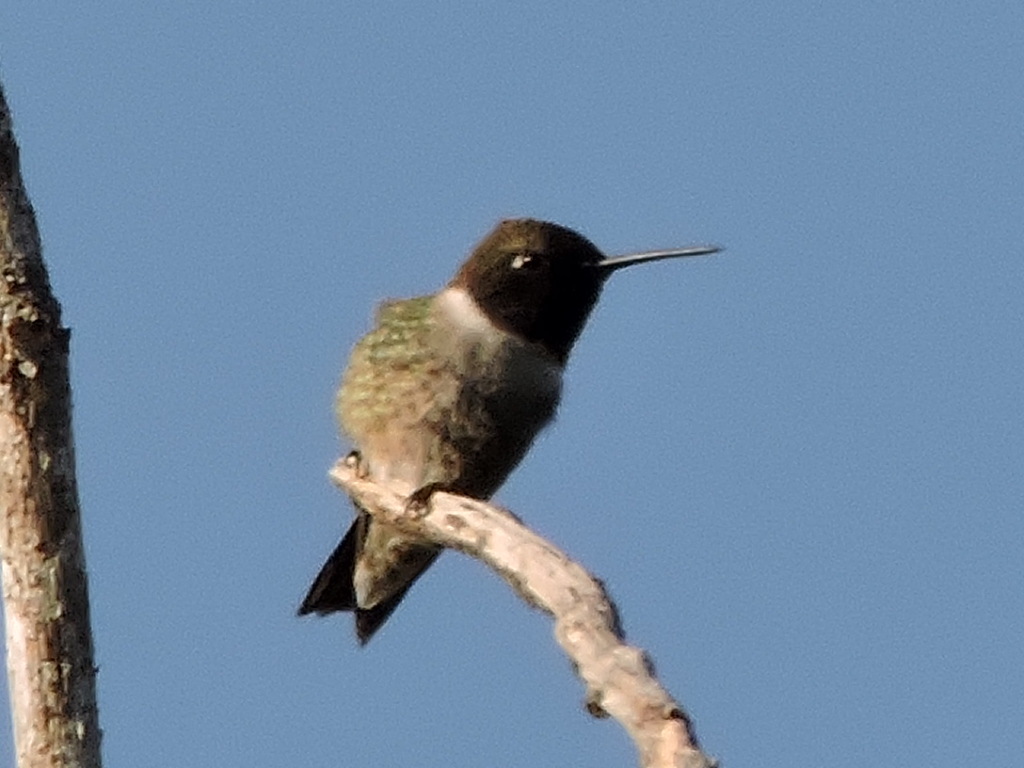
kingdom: Animalia
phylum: Chordata
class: Aves
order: Apodiformes
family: Trochilidae
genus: Archilochus
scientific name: Archilochus alexandri
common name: Black-chinned hummingbird
